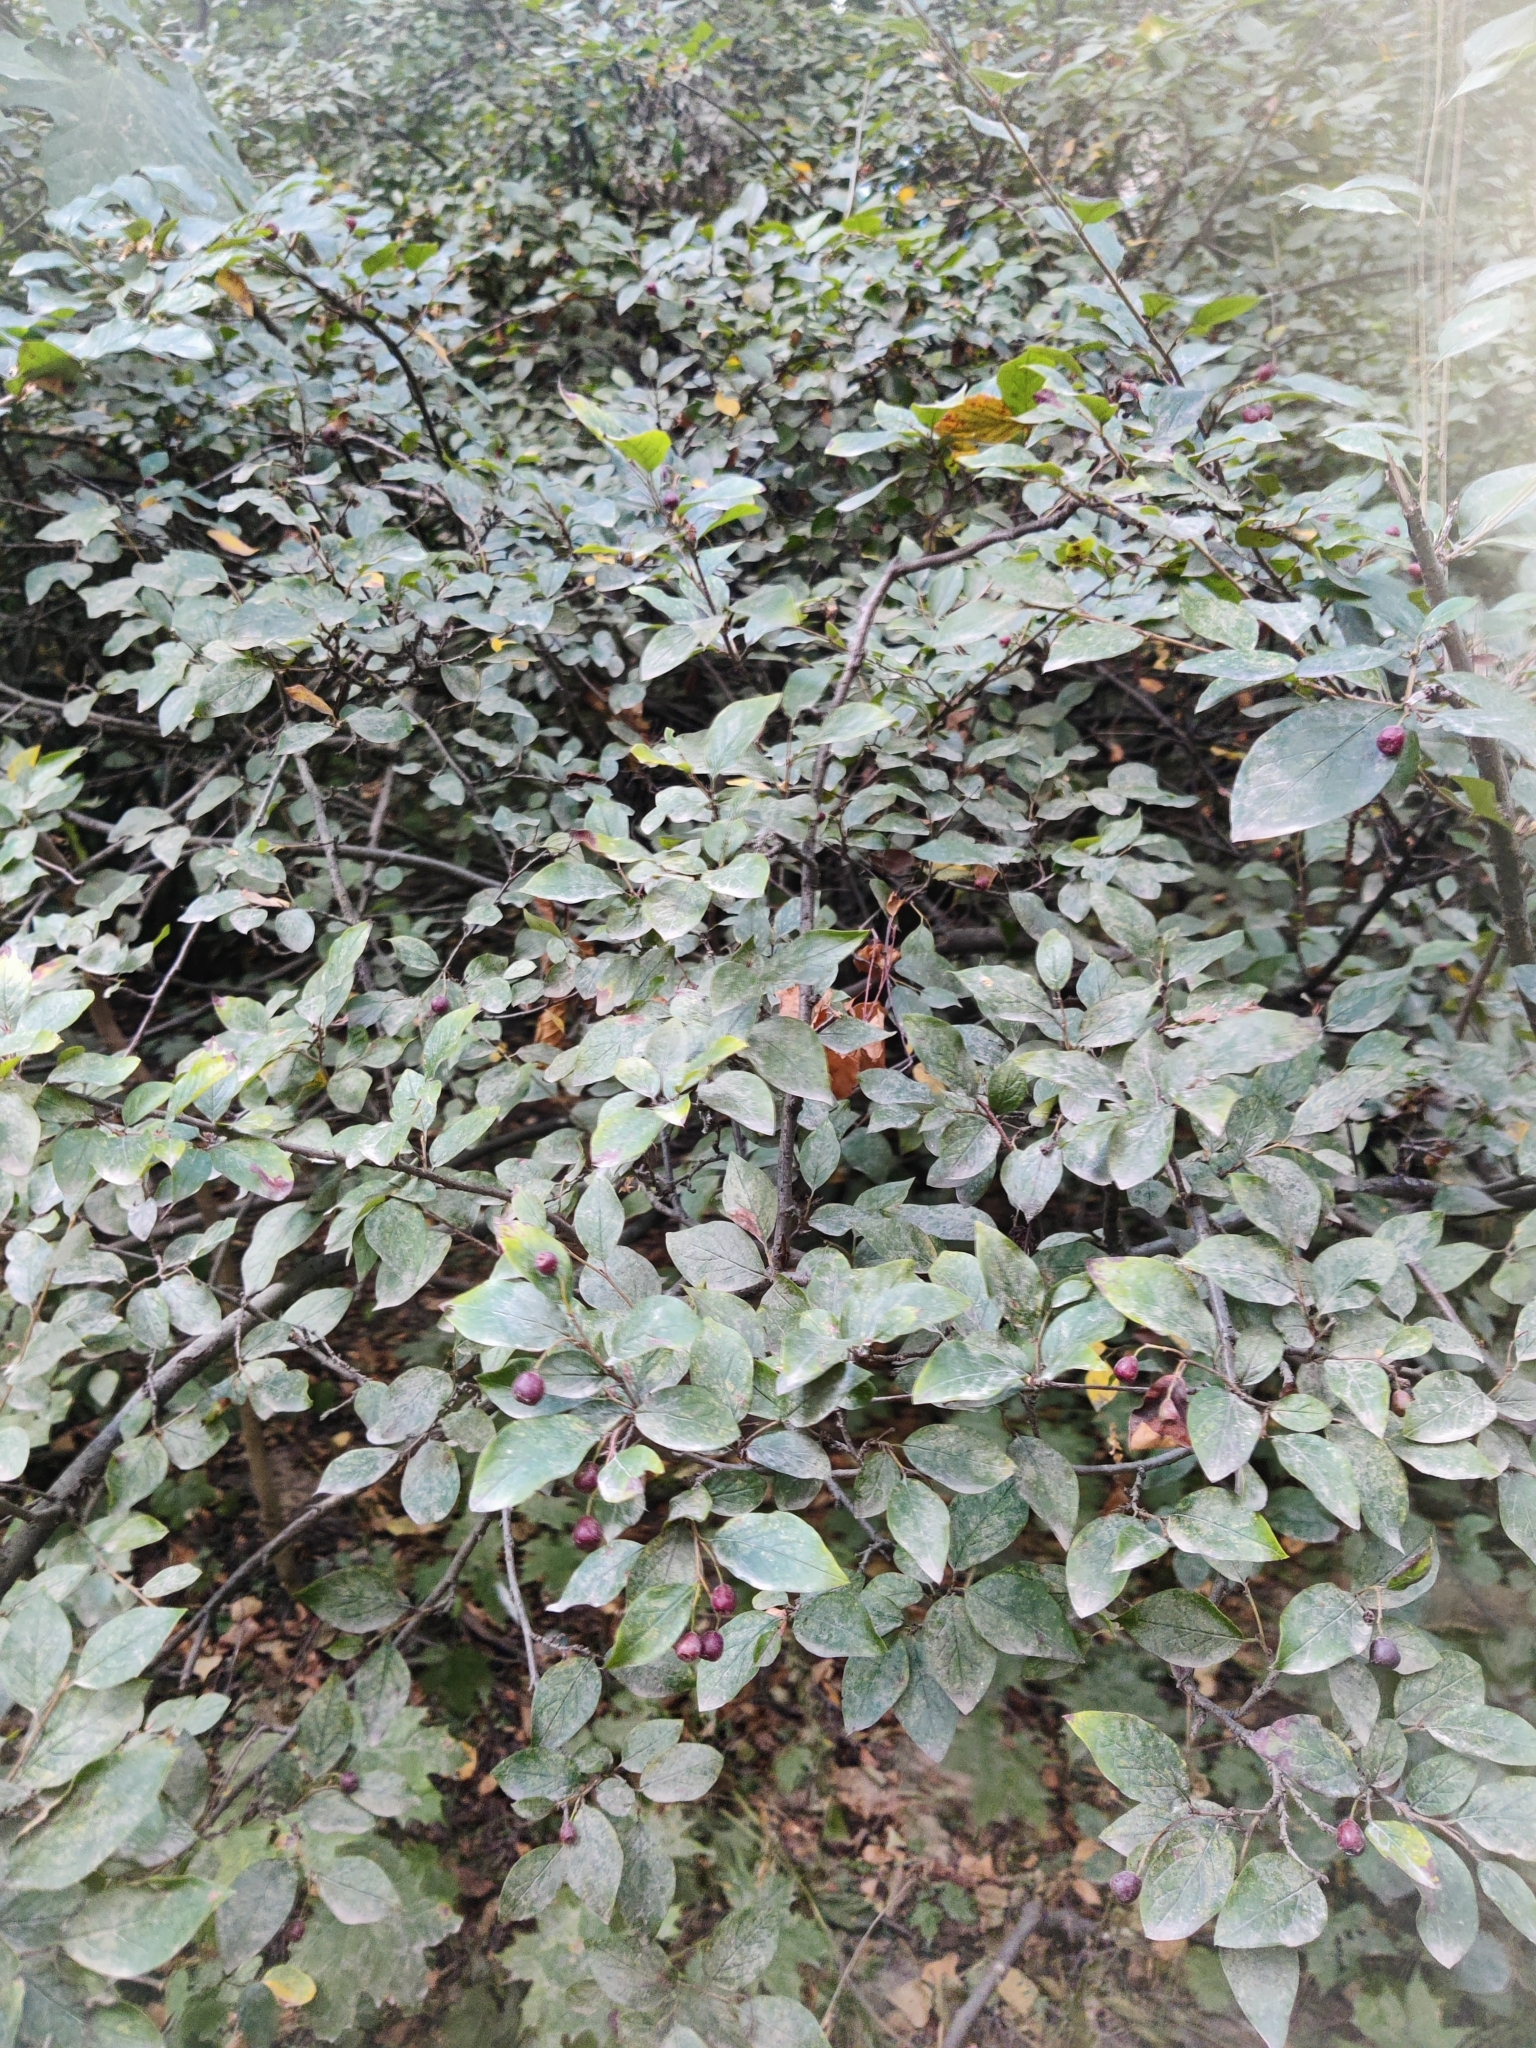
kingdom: Plantae
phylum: Tracheophyta
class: Magnoliopsida
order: Rosales
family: Rosaceae
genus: Cotoneaster
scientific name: Cotoneaster acutifolius
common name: Peking cotoneaster
